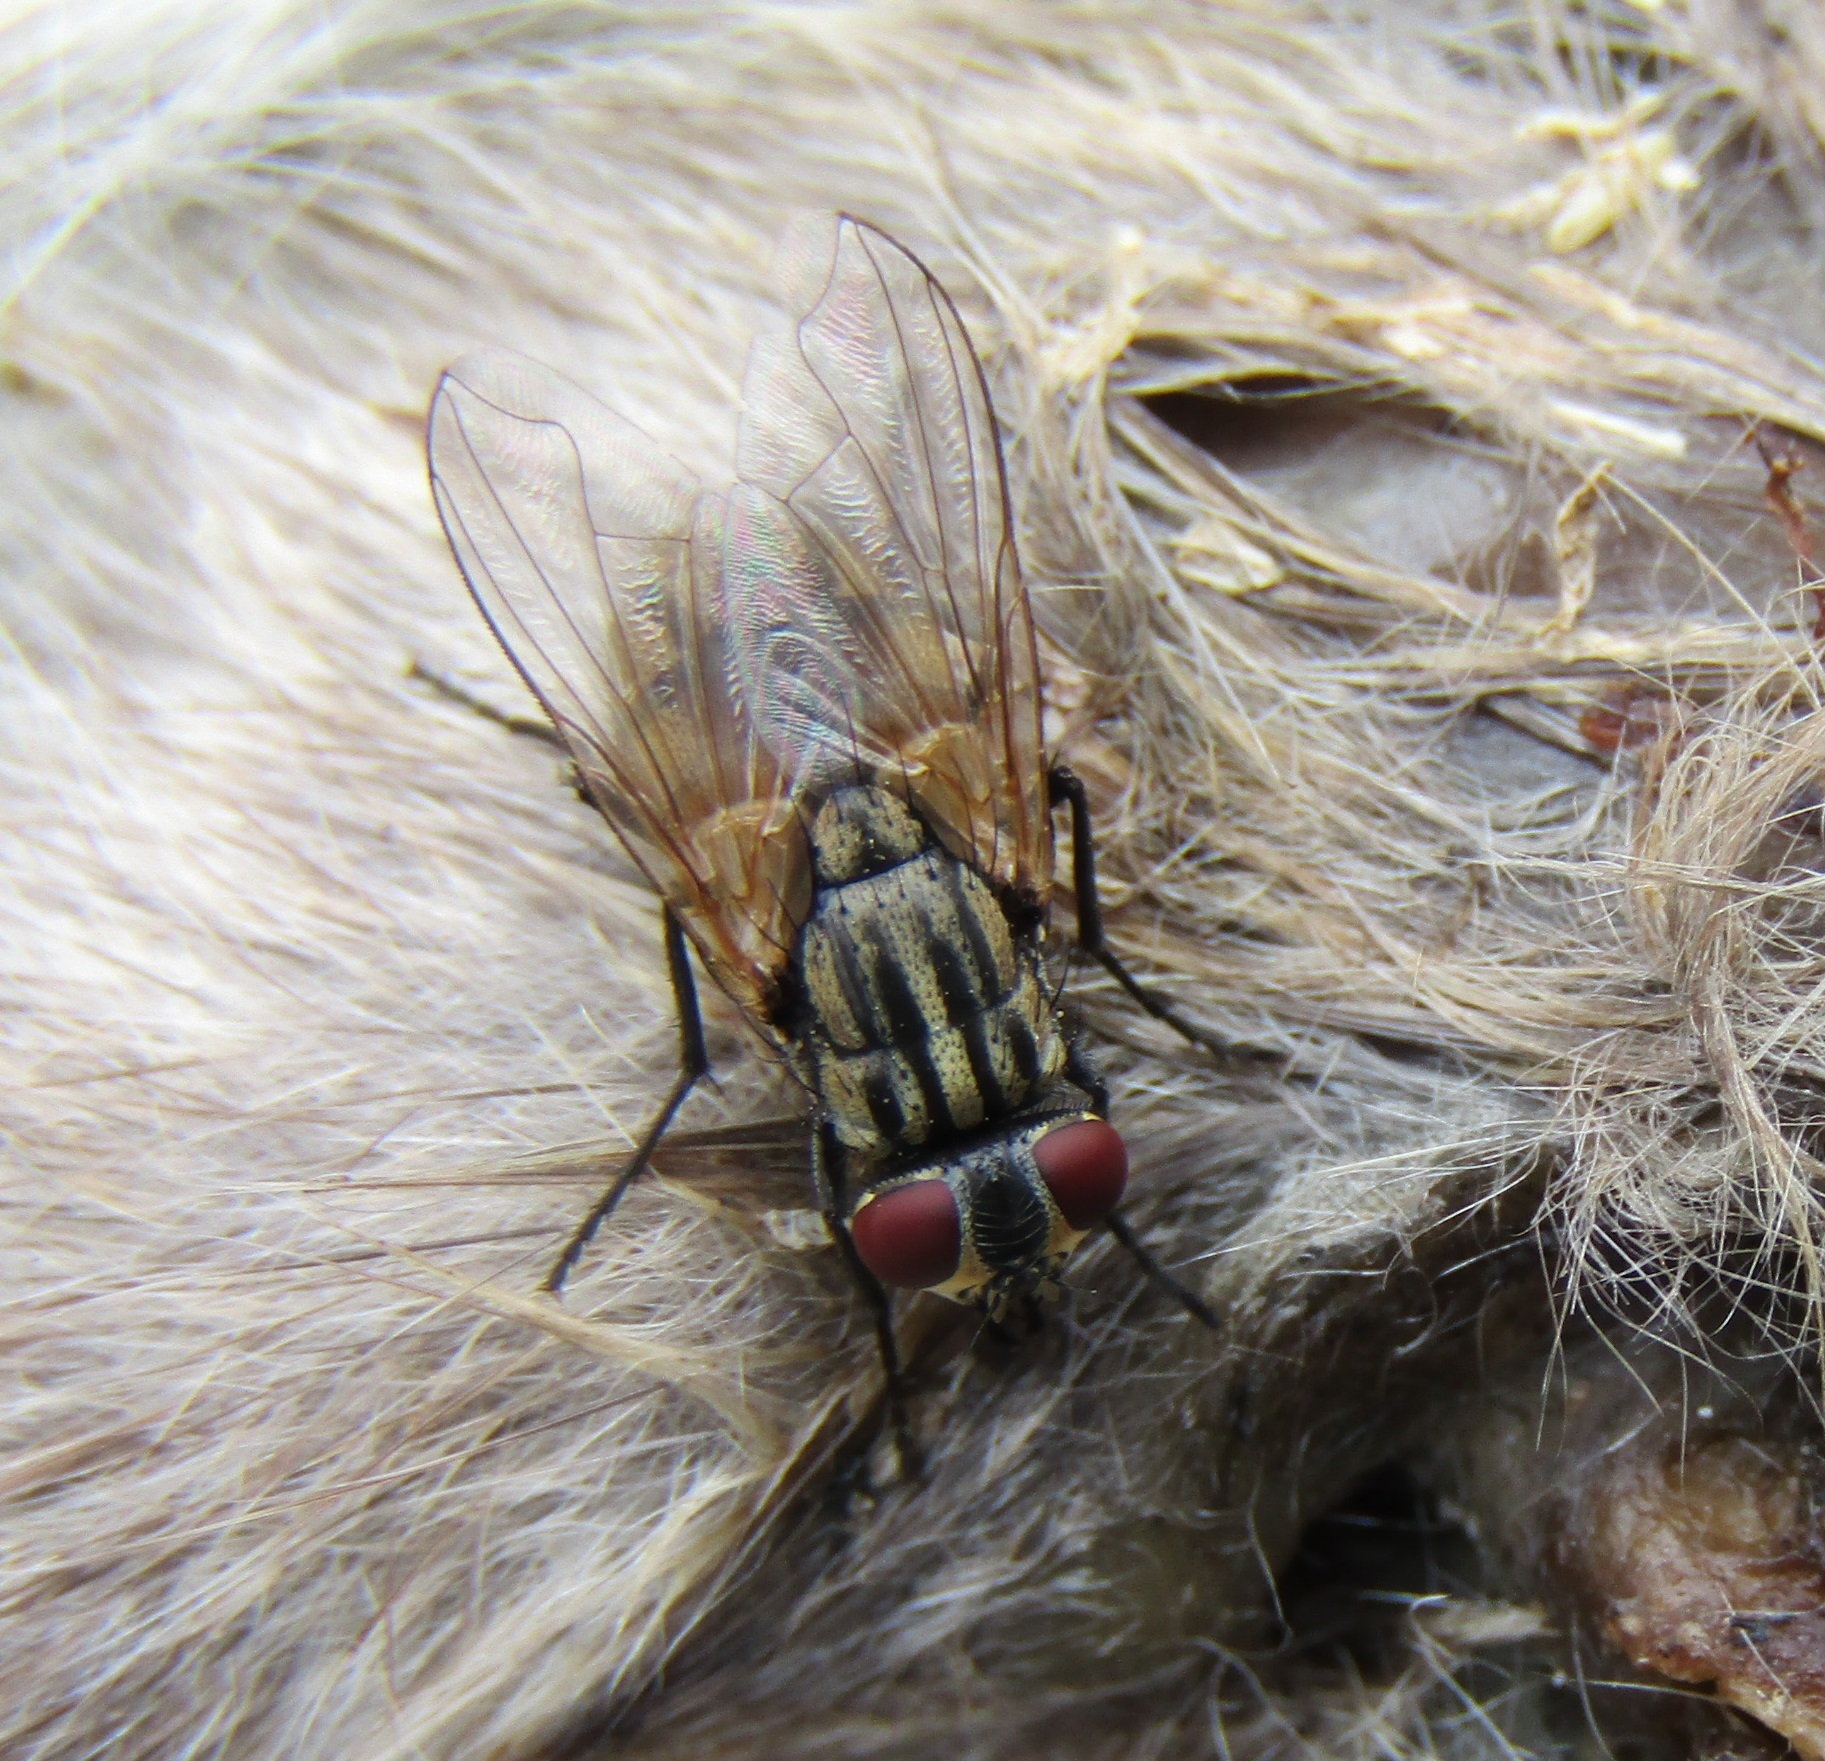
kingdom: Animalia
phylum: Arthropoda
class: Insecta
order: Diptera
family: Muscidae
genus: Musca
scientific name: Musca domestica
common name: House fly
